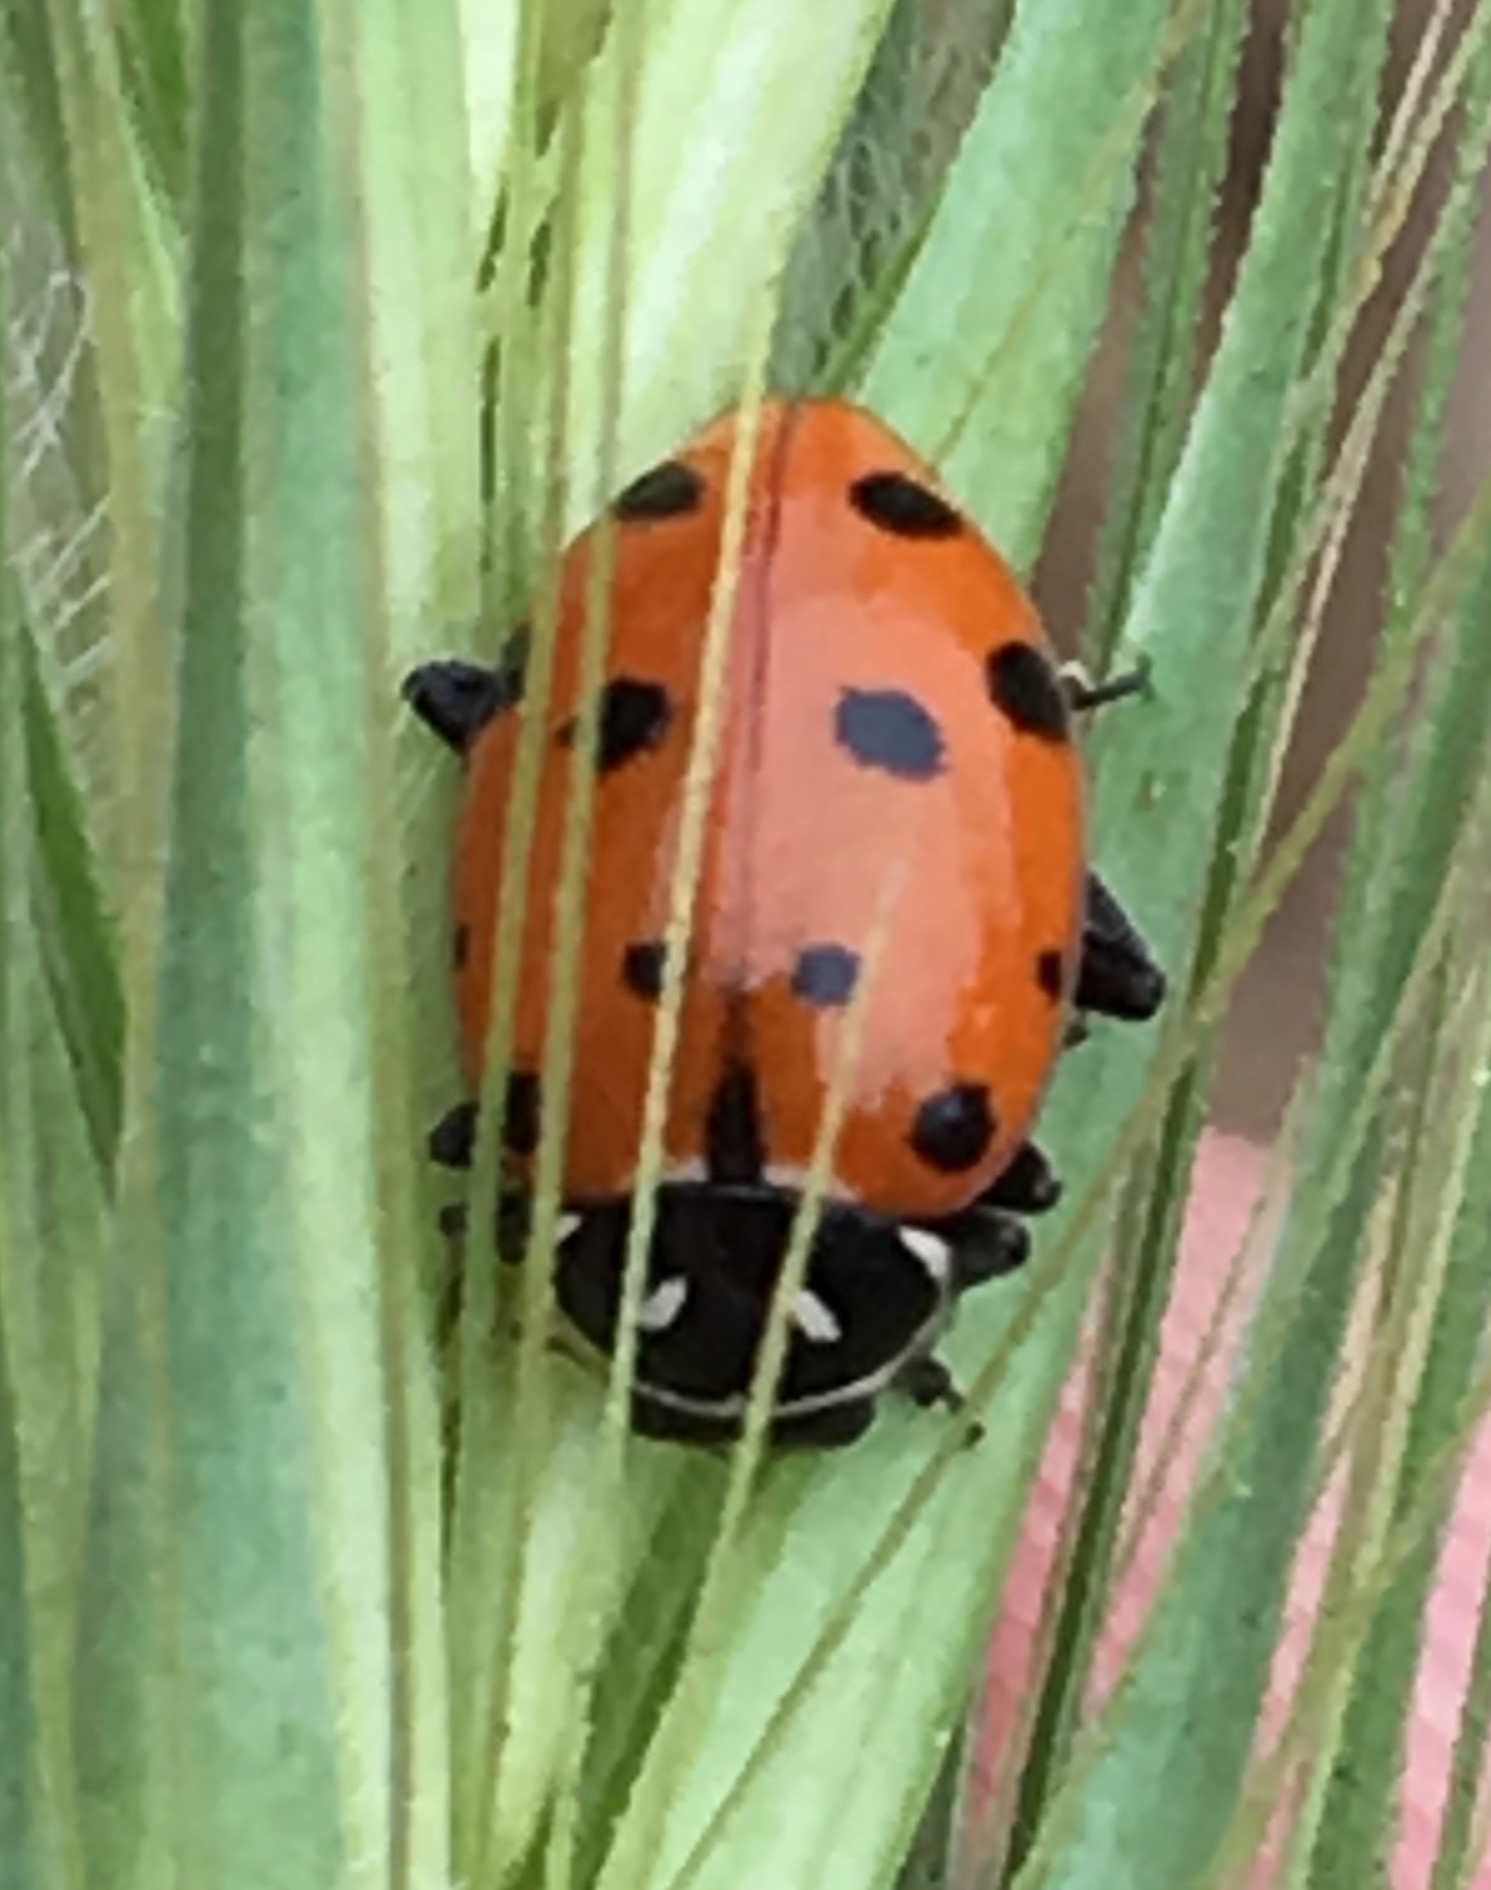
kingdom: Animalia
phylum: Arthropoda
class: Insecta
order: Coleoptera
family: Coccinellidae
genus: Hippodamia
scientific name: Hippodamia convergens
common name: Convergent lady beetle
